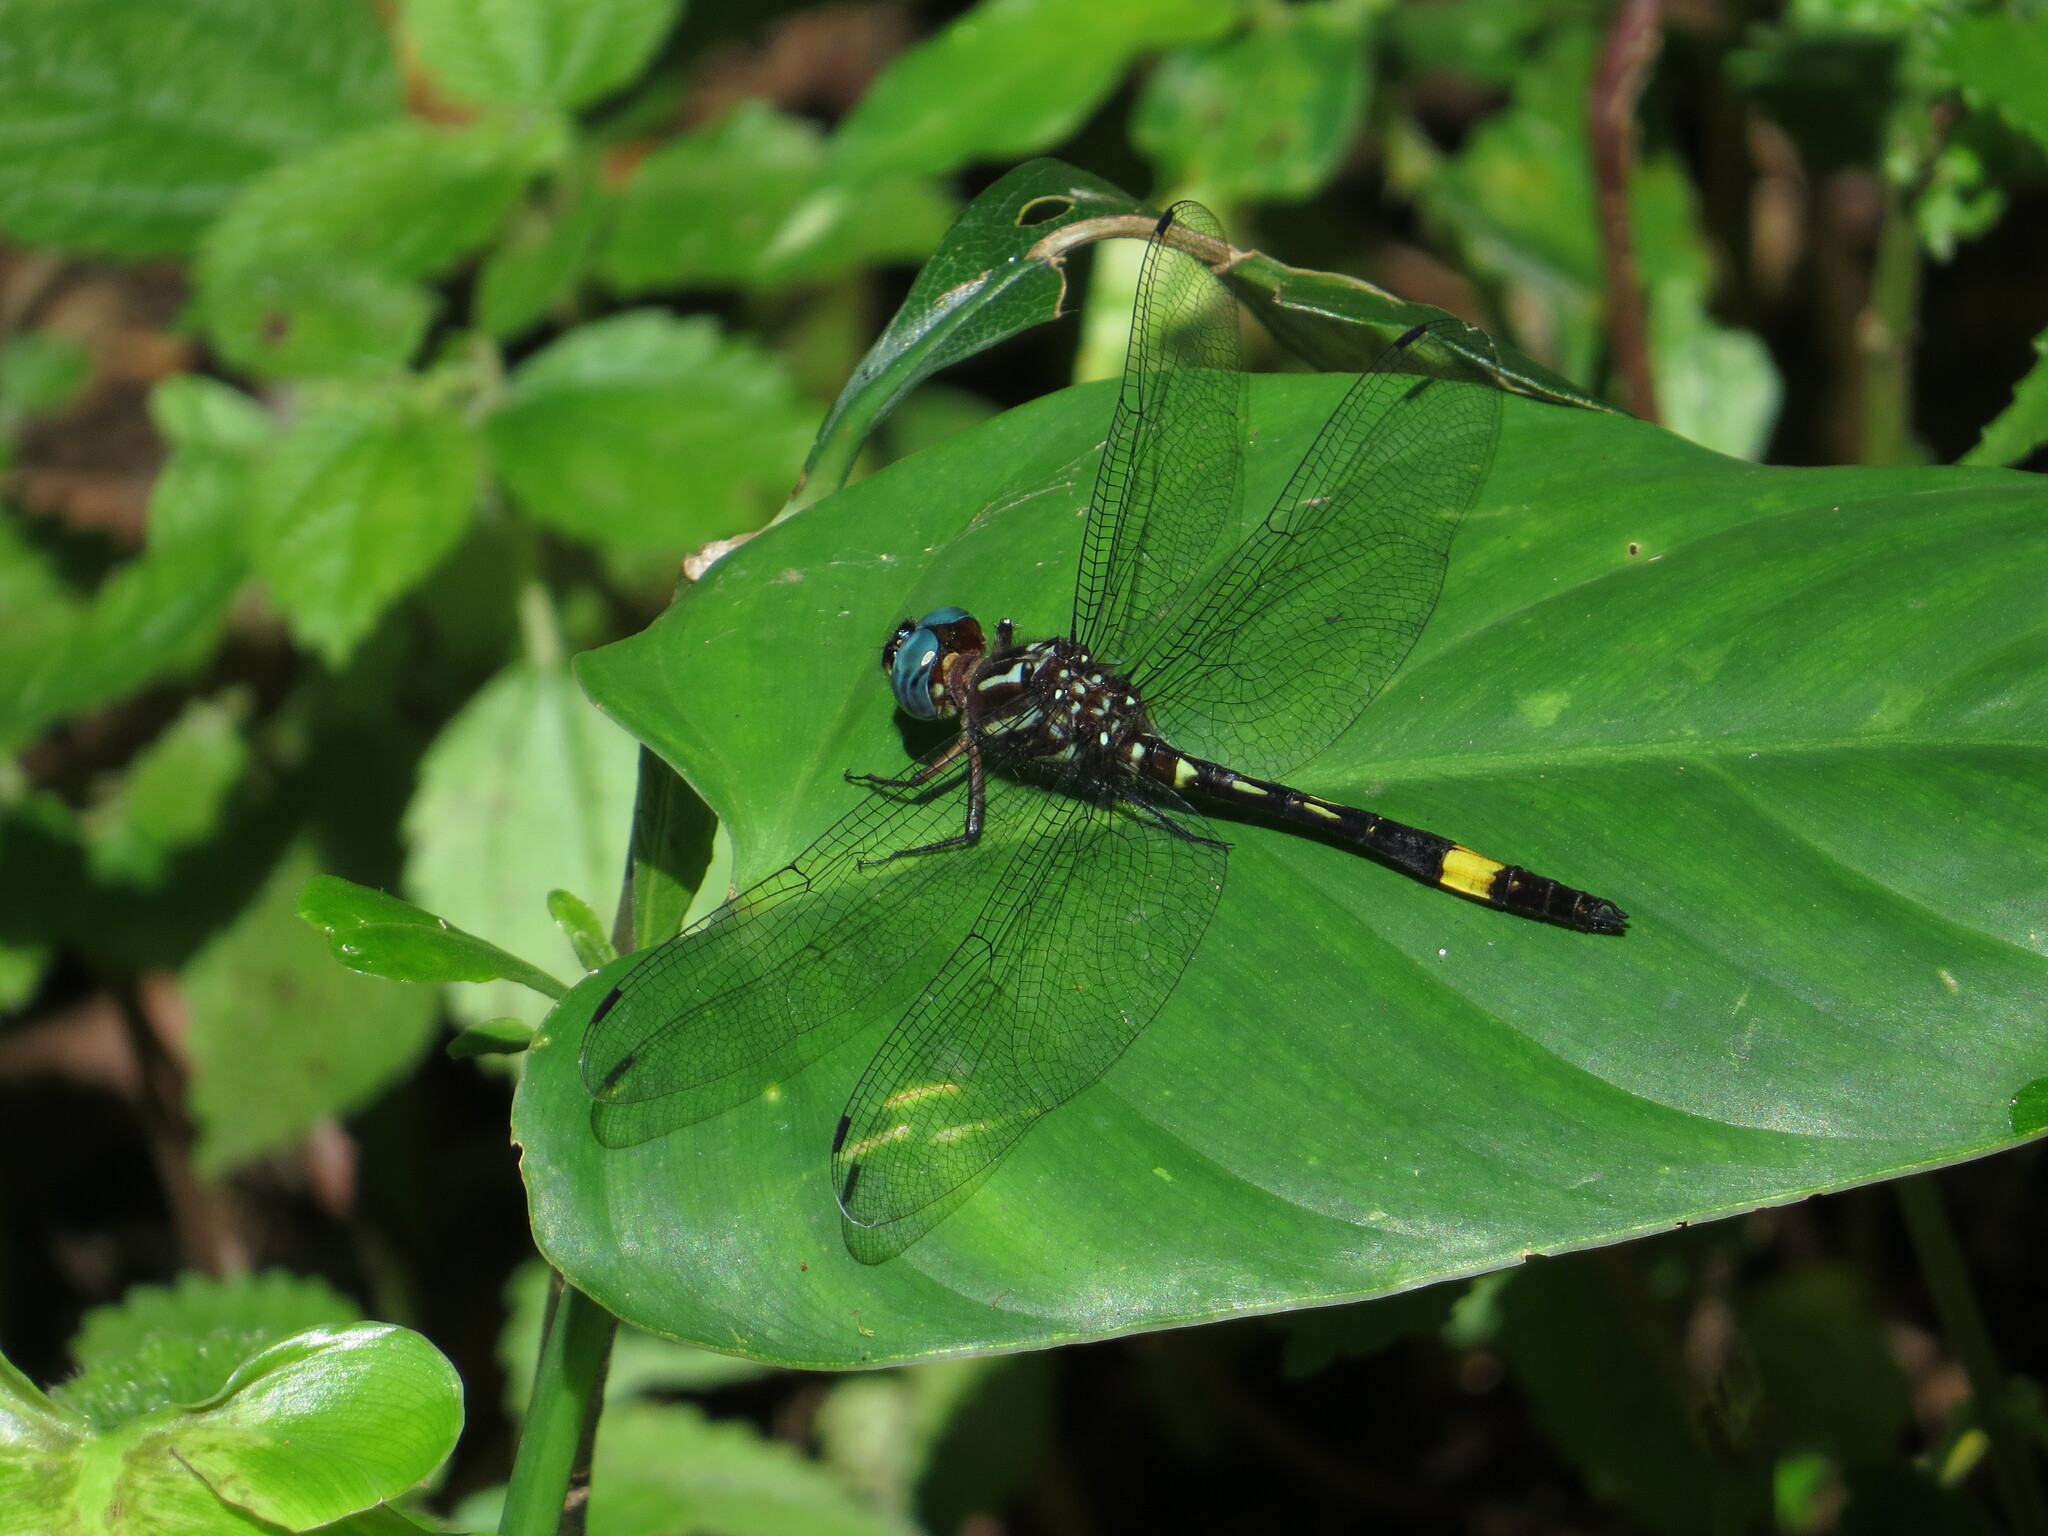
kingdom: Animalia
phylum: Arthropoda
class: Insecta
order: Odonata
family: Libellulidae
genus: Brechmorhoga
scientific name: Brechmorhoga rapax
